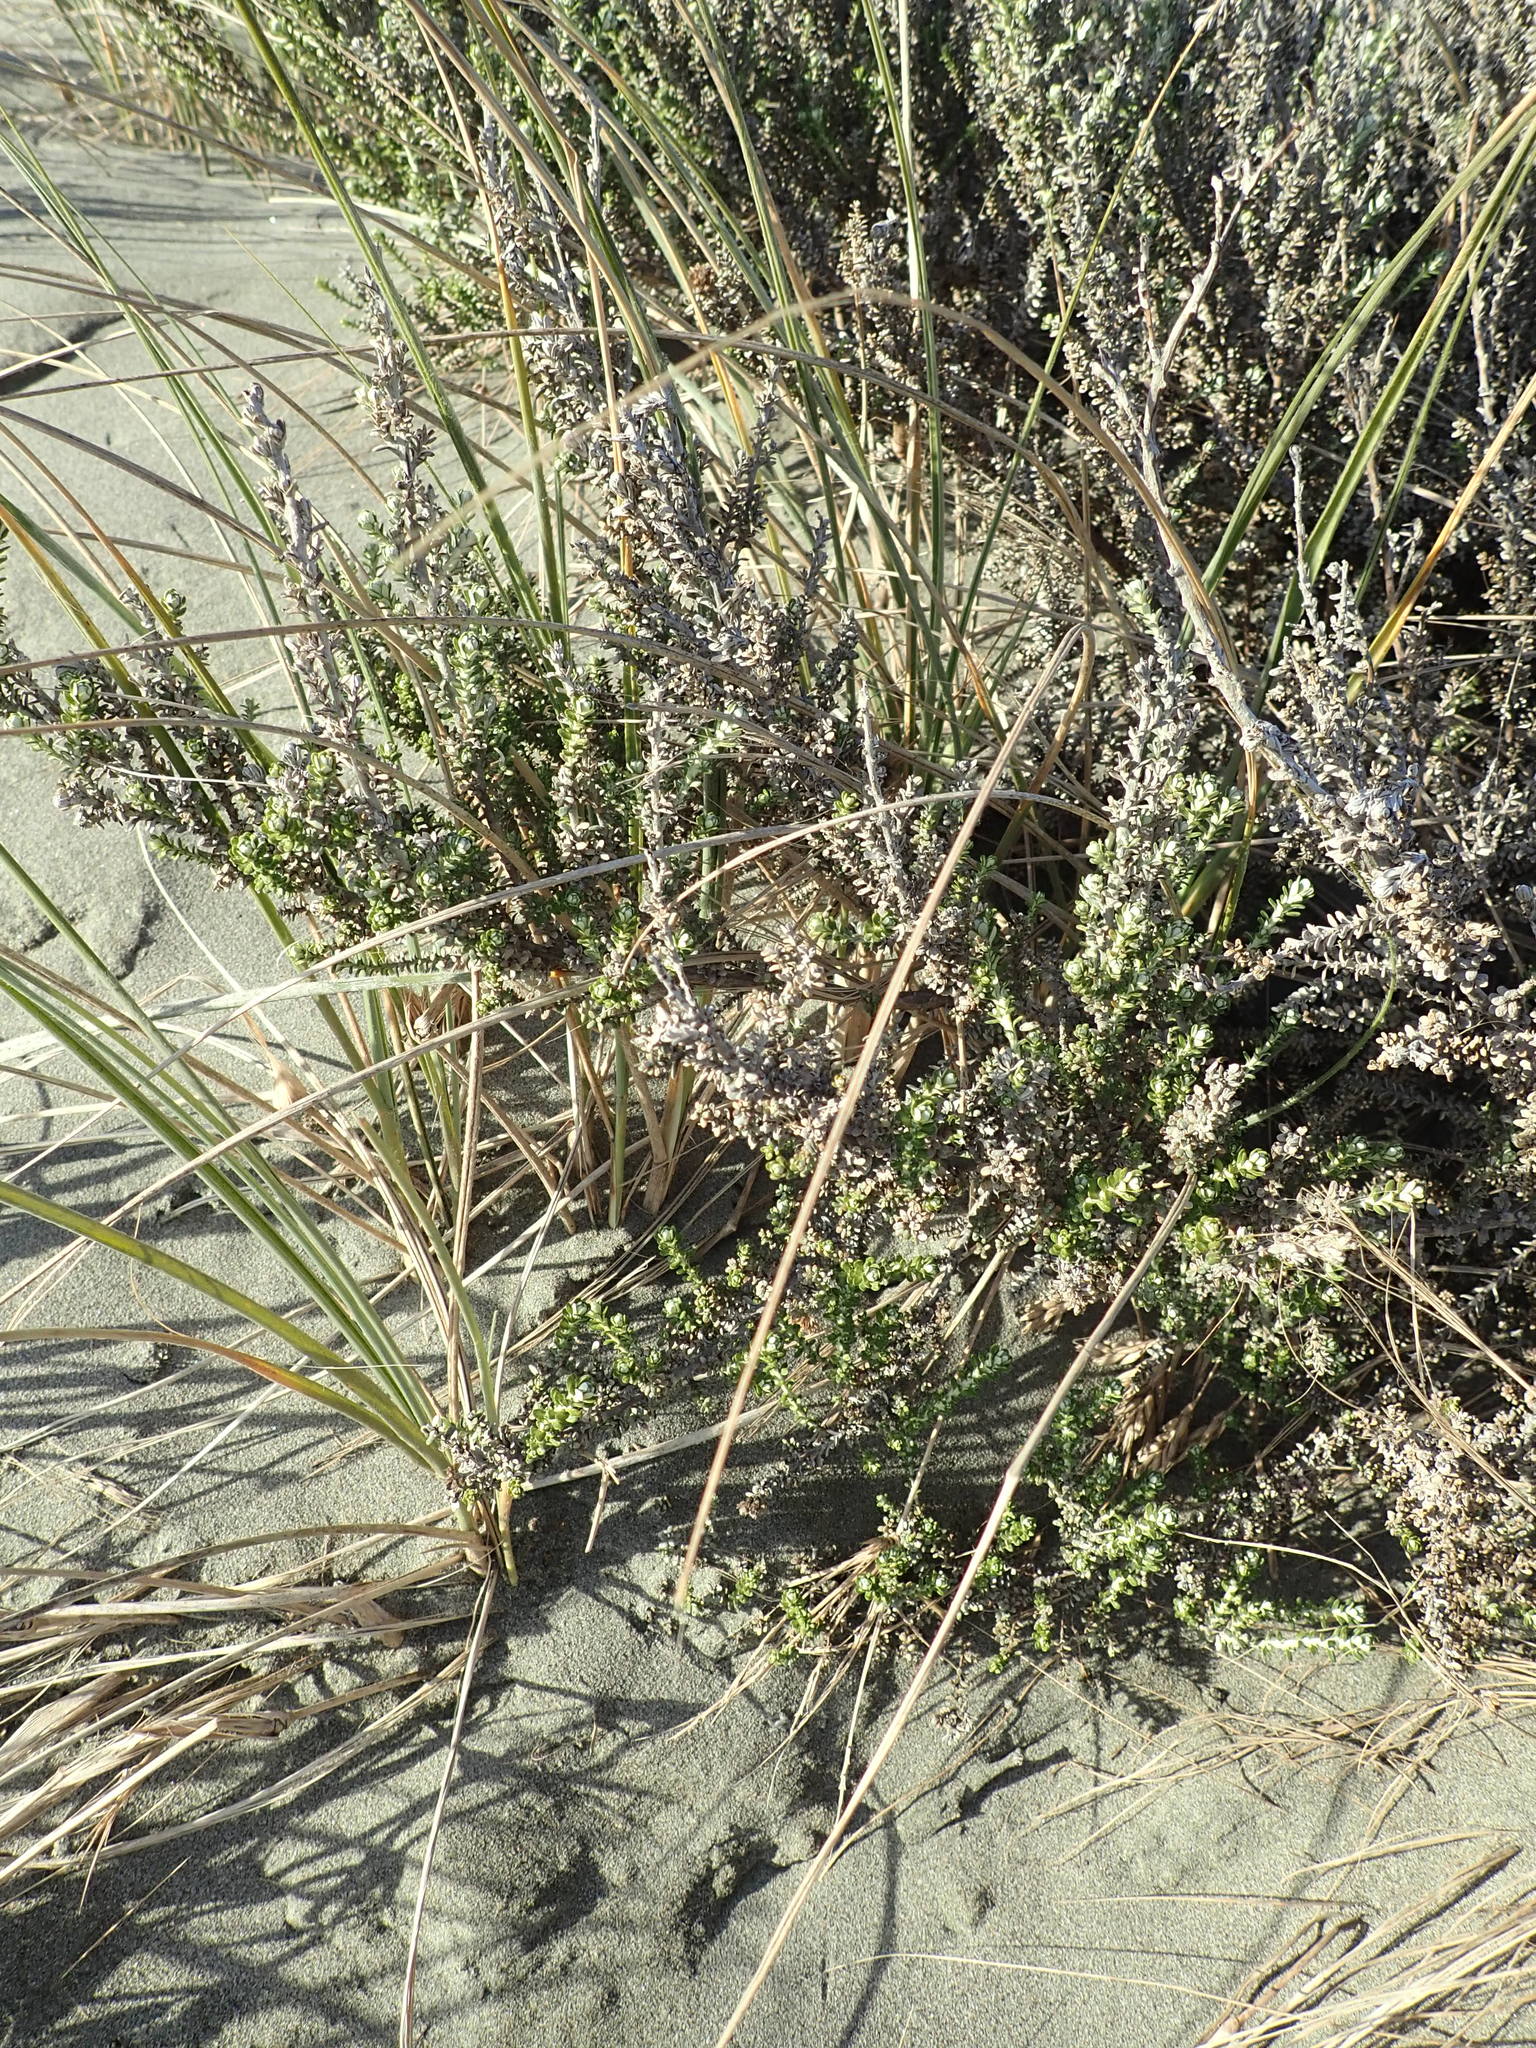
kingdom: Plantae
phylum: Tracheophyta
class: Magnoliopsida
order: Asterales
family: Asteraceae
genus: Ozothamnus
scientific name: Ozothamnus leptophyllus
